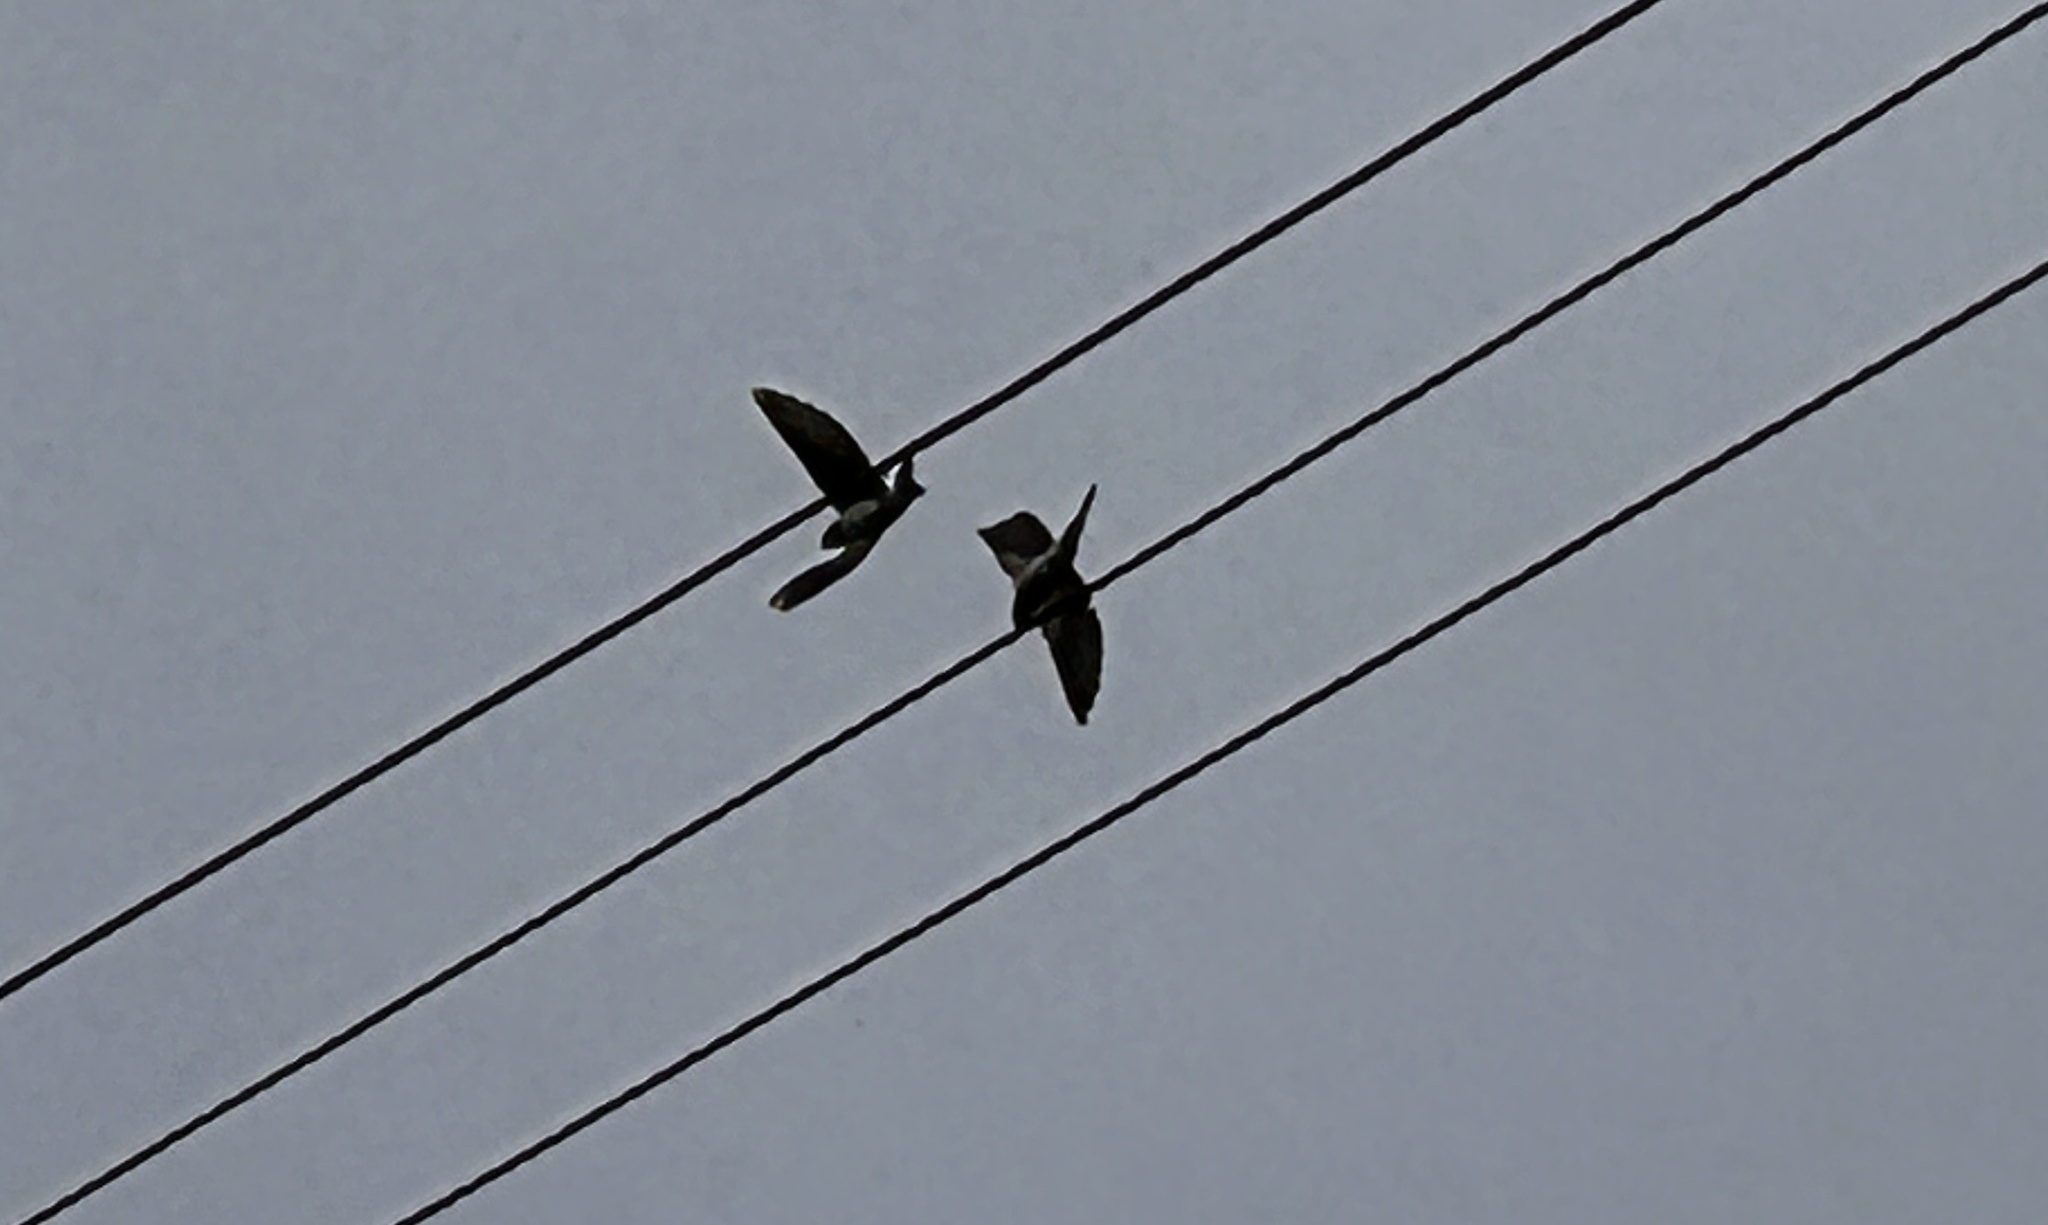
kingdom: Animalia
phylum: Chordata
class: Aves
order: Passeriformes
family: Hirundinidae
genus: Hirundo
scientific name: Hirundo rustica
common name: Barn swallow
